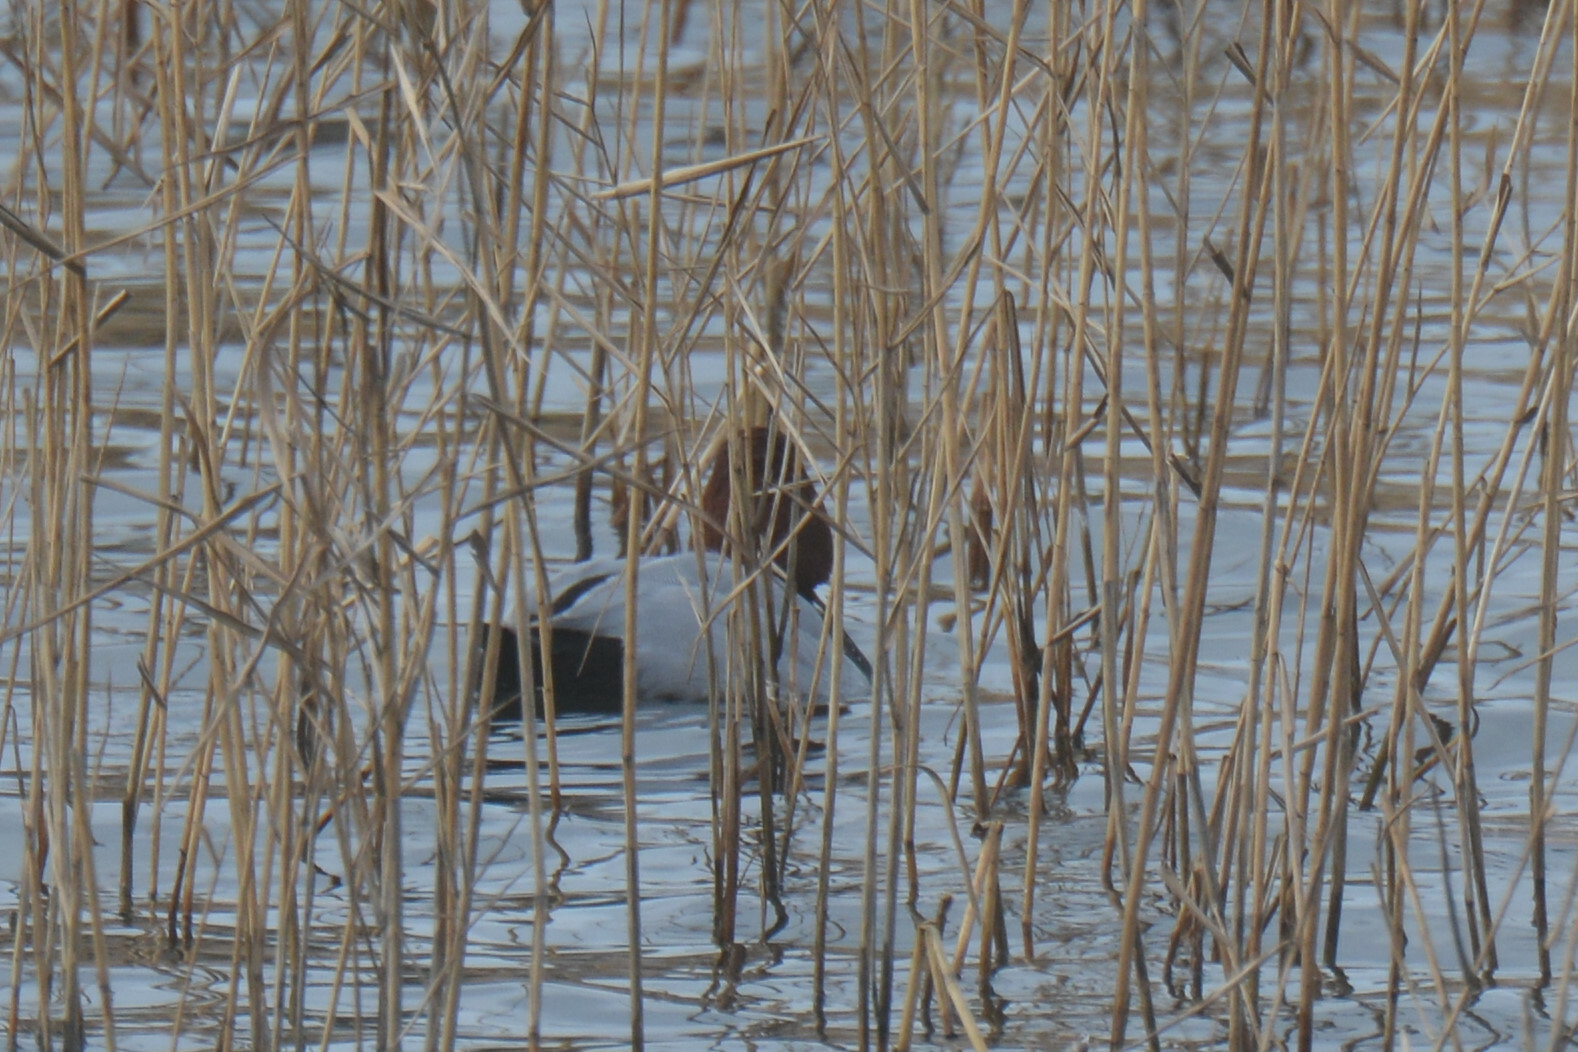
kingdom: Animalia
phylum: Chordata
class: Aves
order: Anseriformes
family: Anatidae
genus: Aythya
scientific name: Aythya ferina
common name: Common pochard
